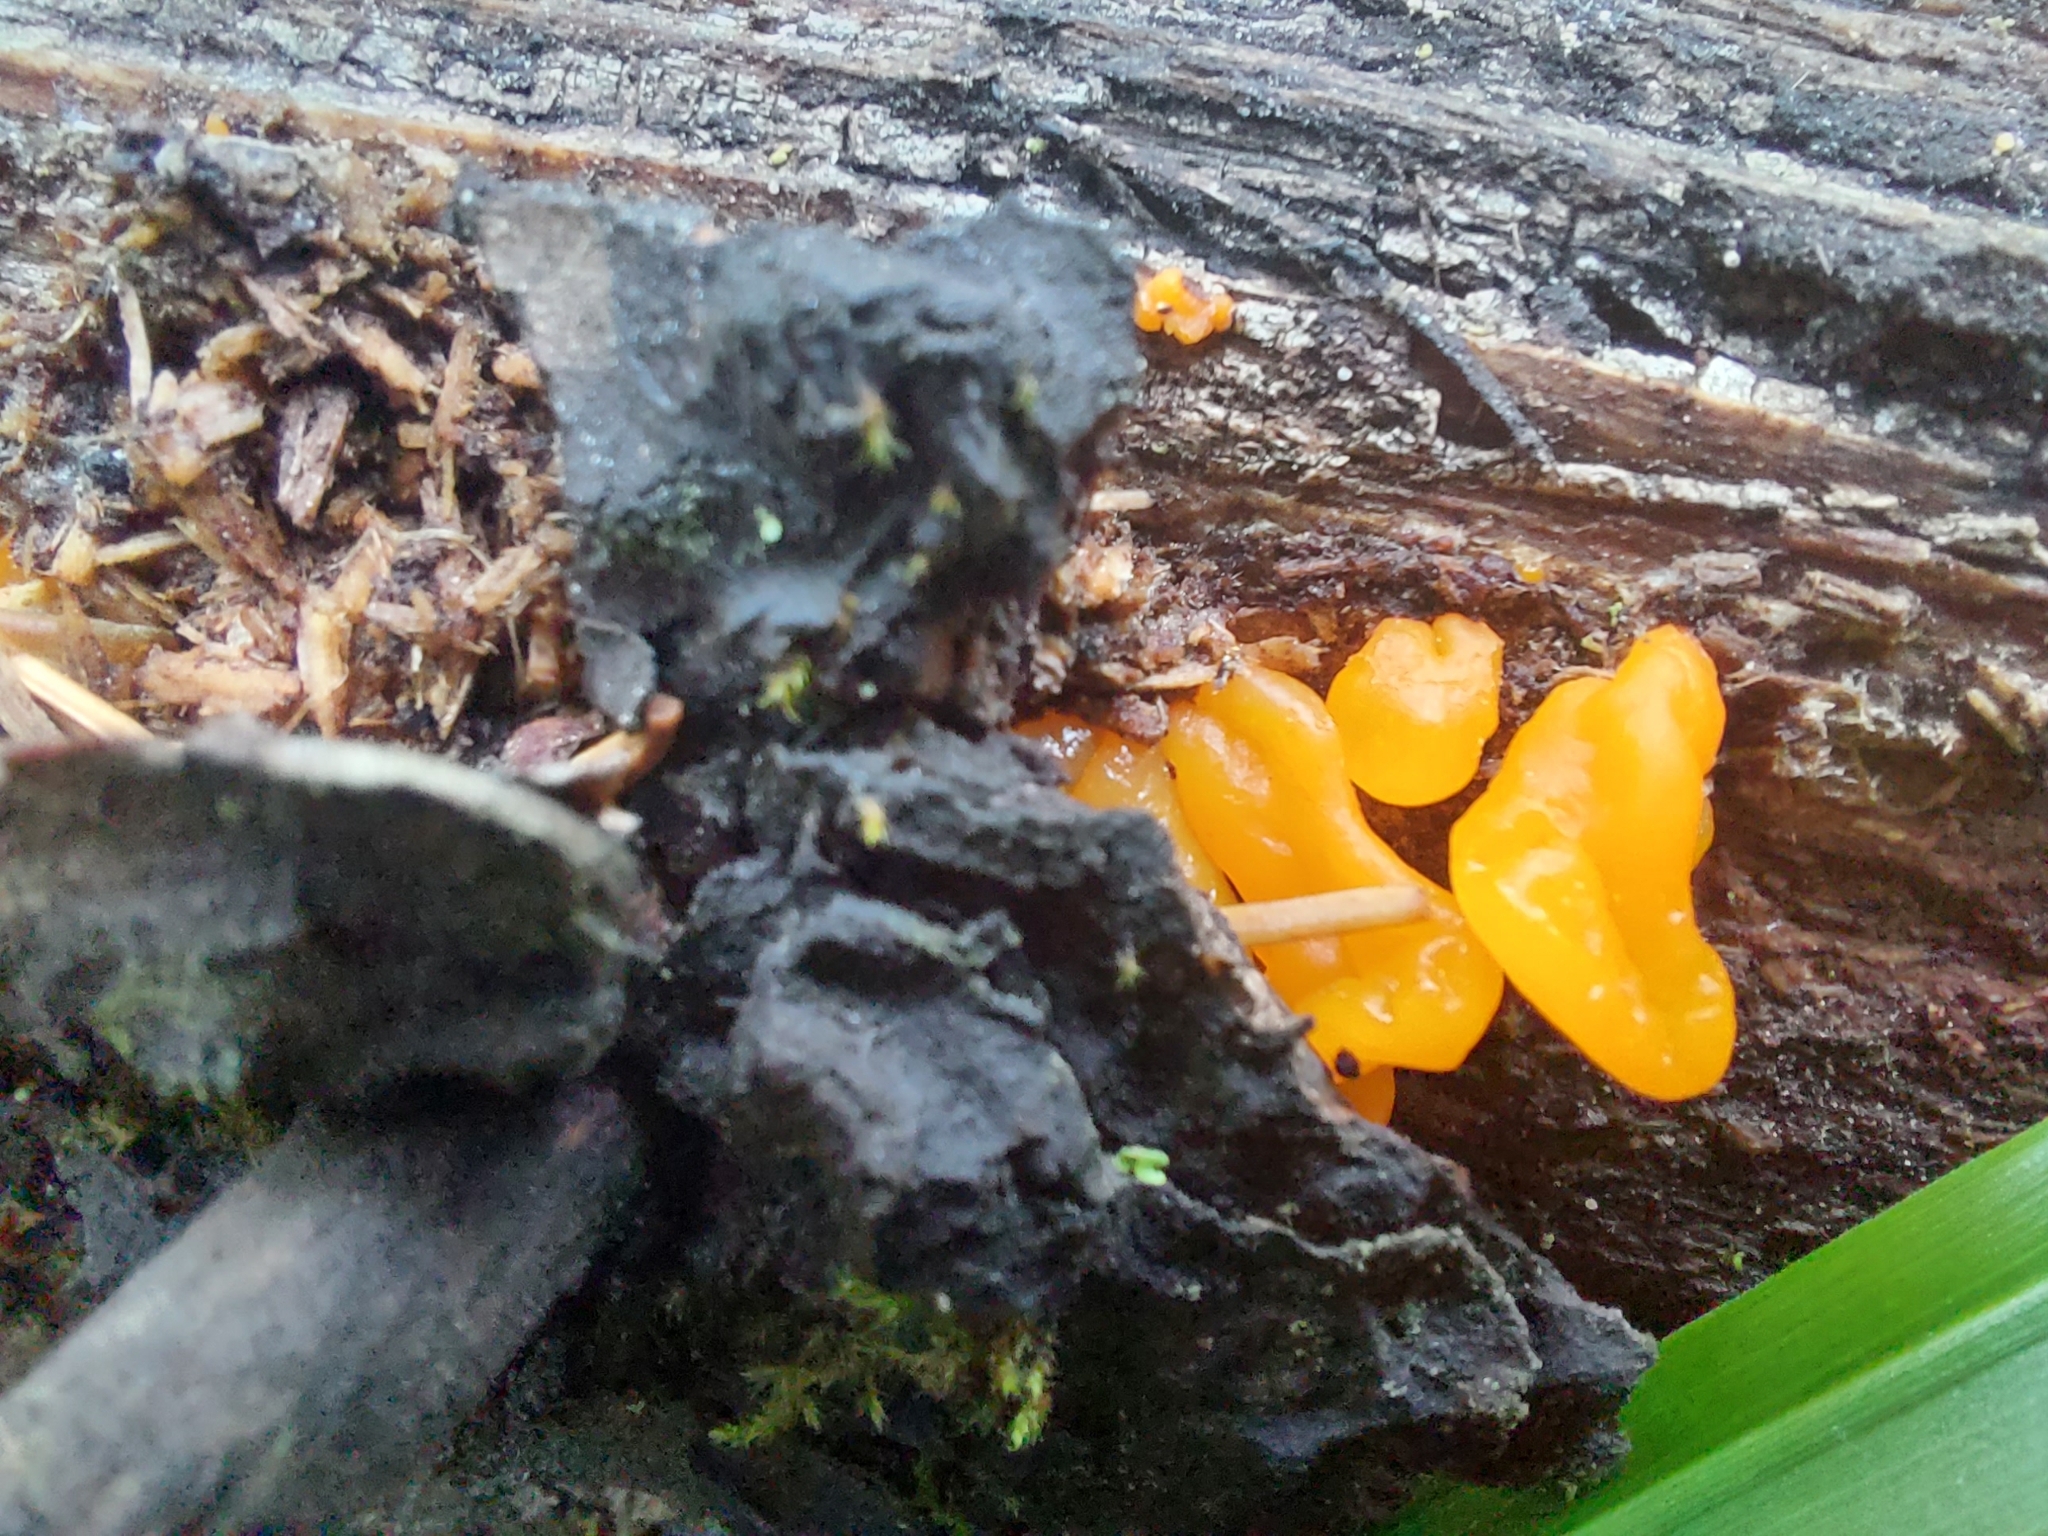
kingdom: Fungi
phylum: Basidiomycota
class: Tremellomycetes
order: Tremellales
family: Tremellaceae
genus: Tremella
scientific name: Tremella mesenterica
